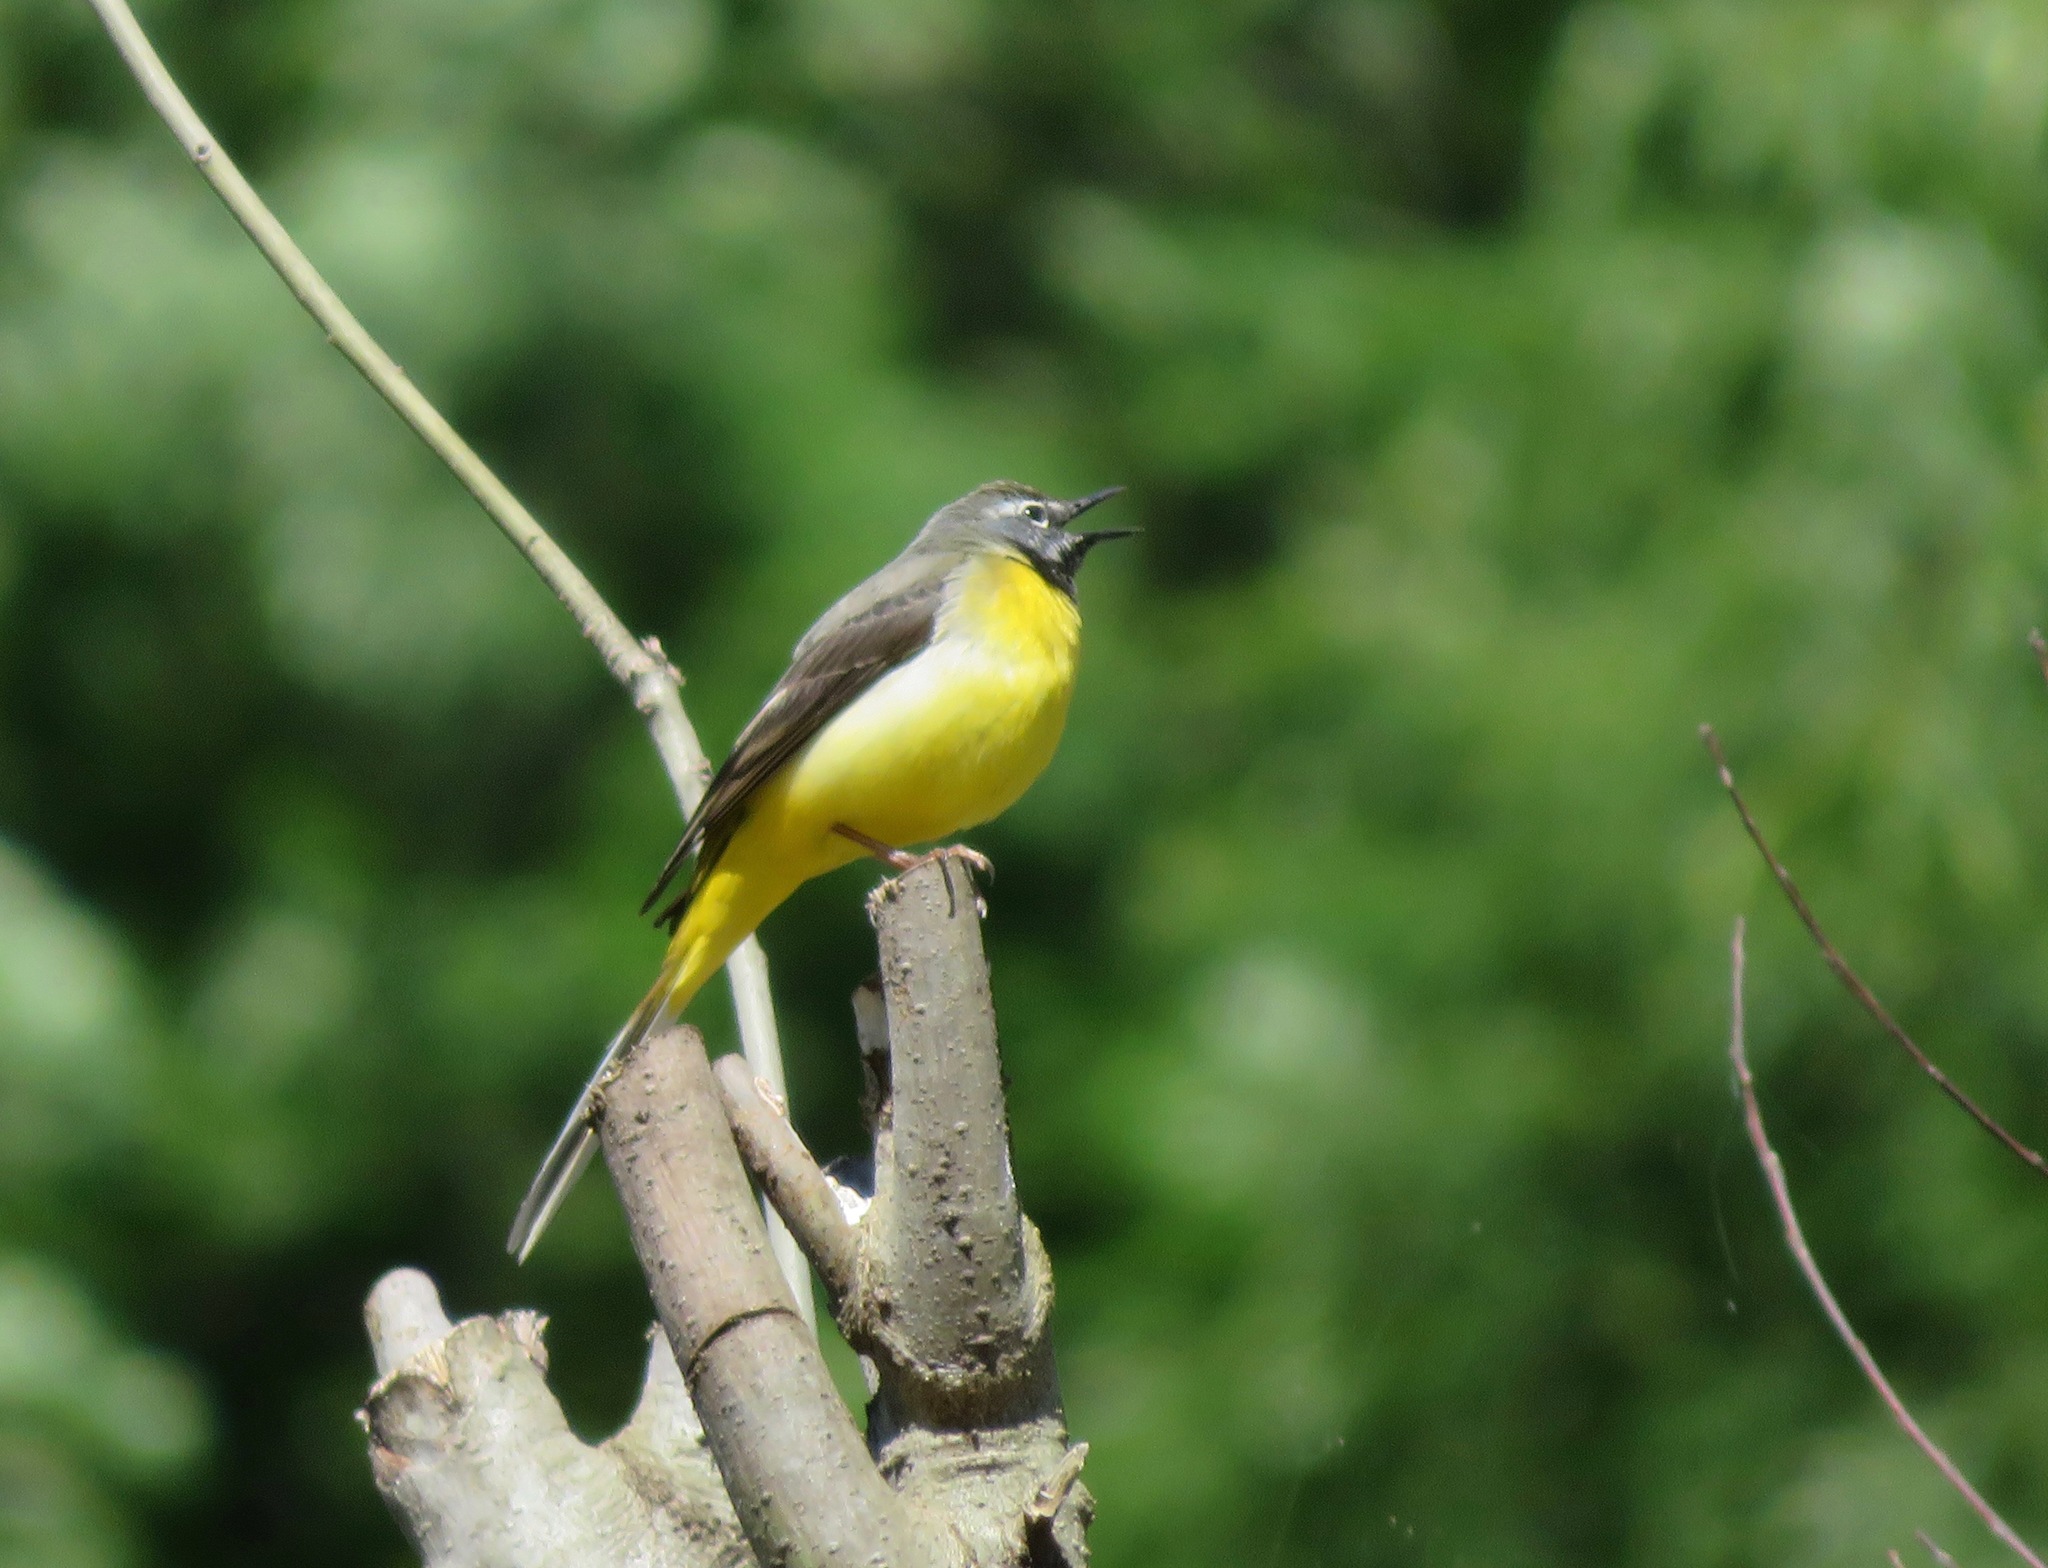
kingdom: Animalia
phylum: Chordata
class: Aves
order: Passeriformes
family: Motacillidae
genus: Motacilla
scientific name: Motacilla cinerea
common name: Grey wagtail
